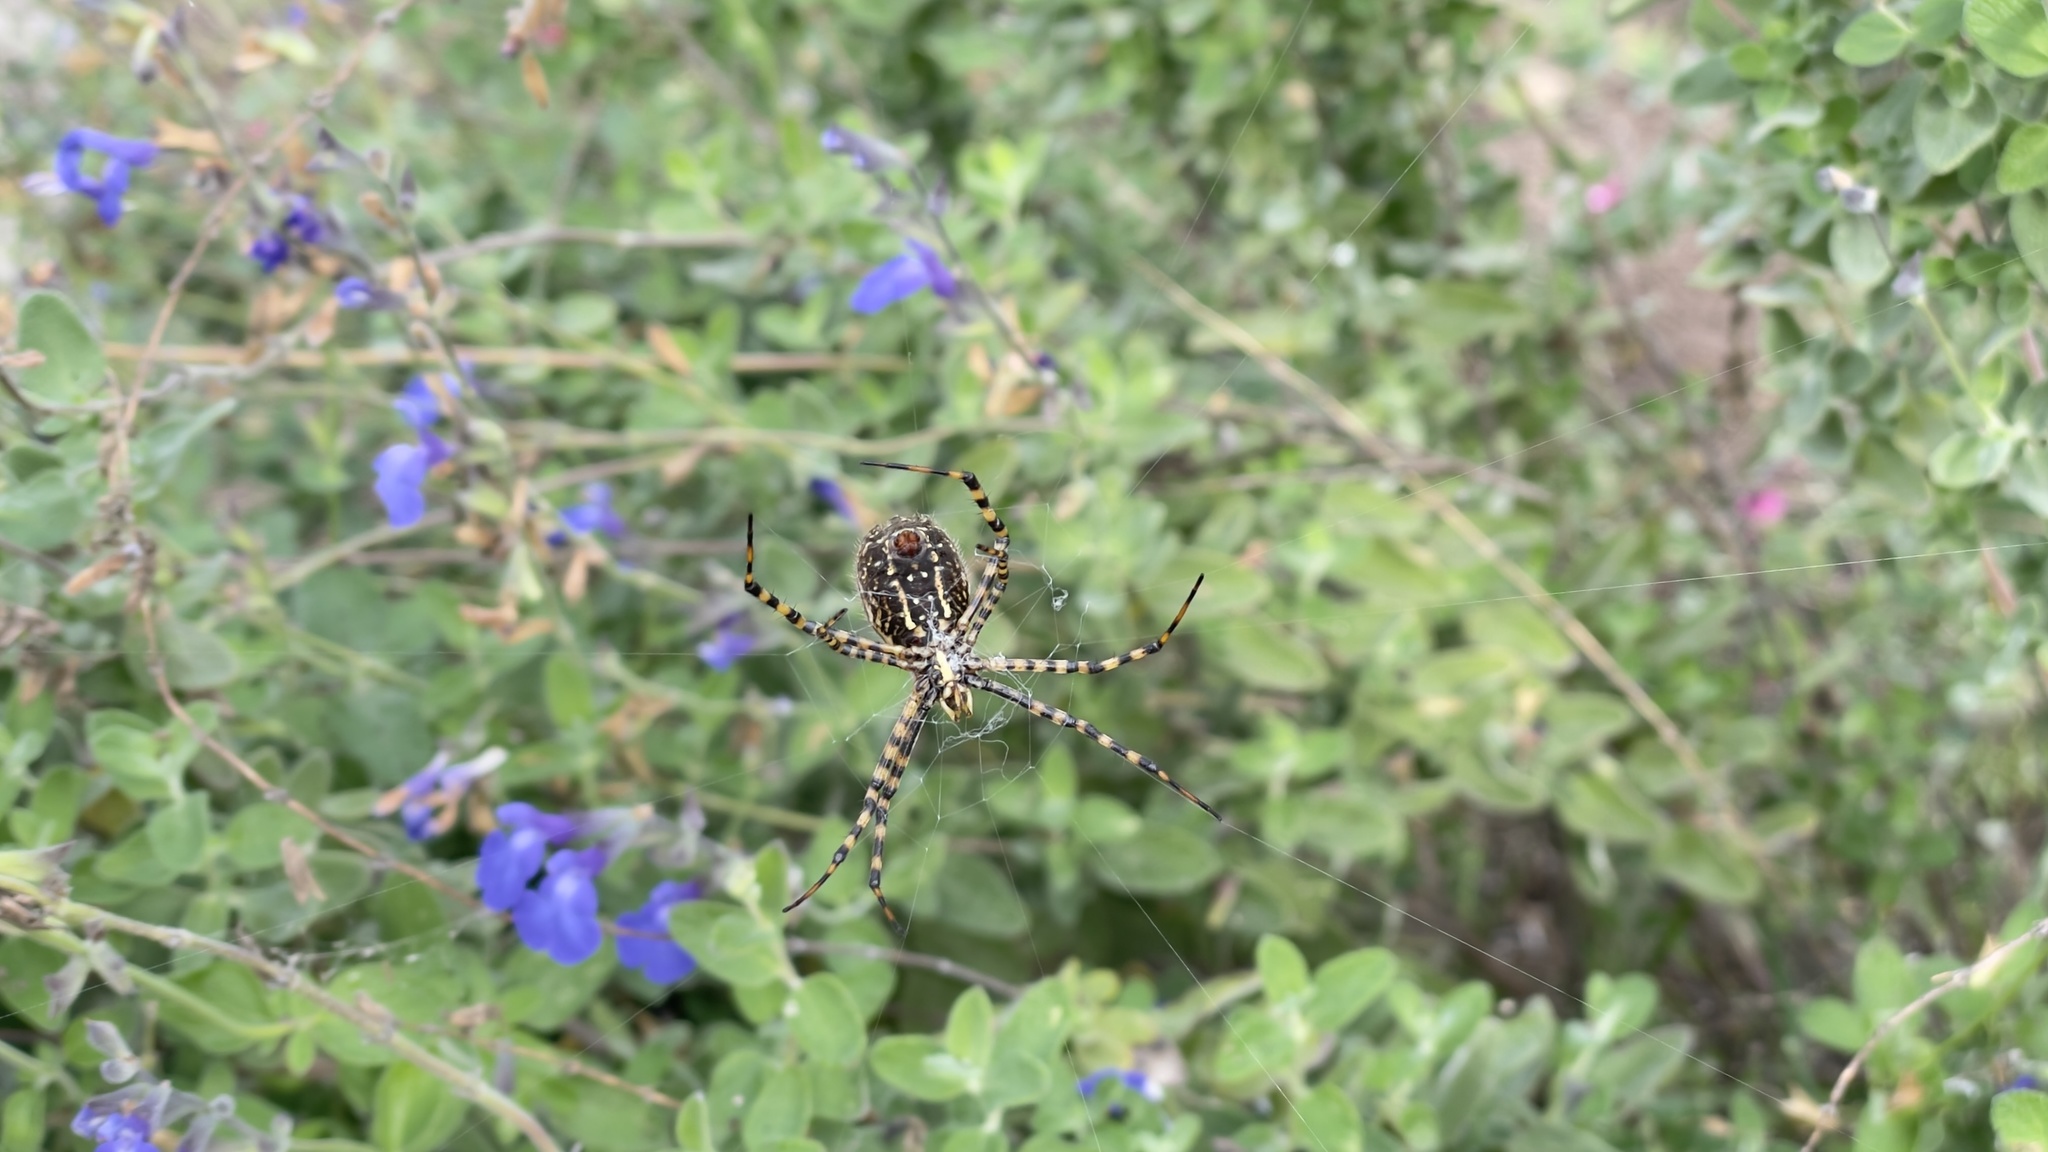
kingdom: Animalia
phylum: Arthropoda
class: Arachnida
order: Araneae
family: Araneidae
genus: Argiope
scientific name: Argiope trifasciata
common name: Banded garden spider
